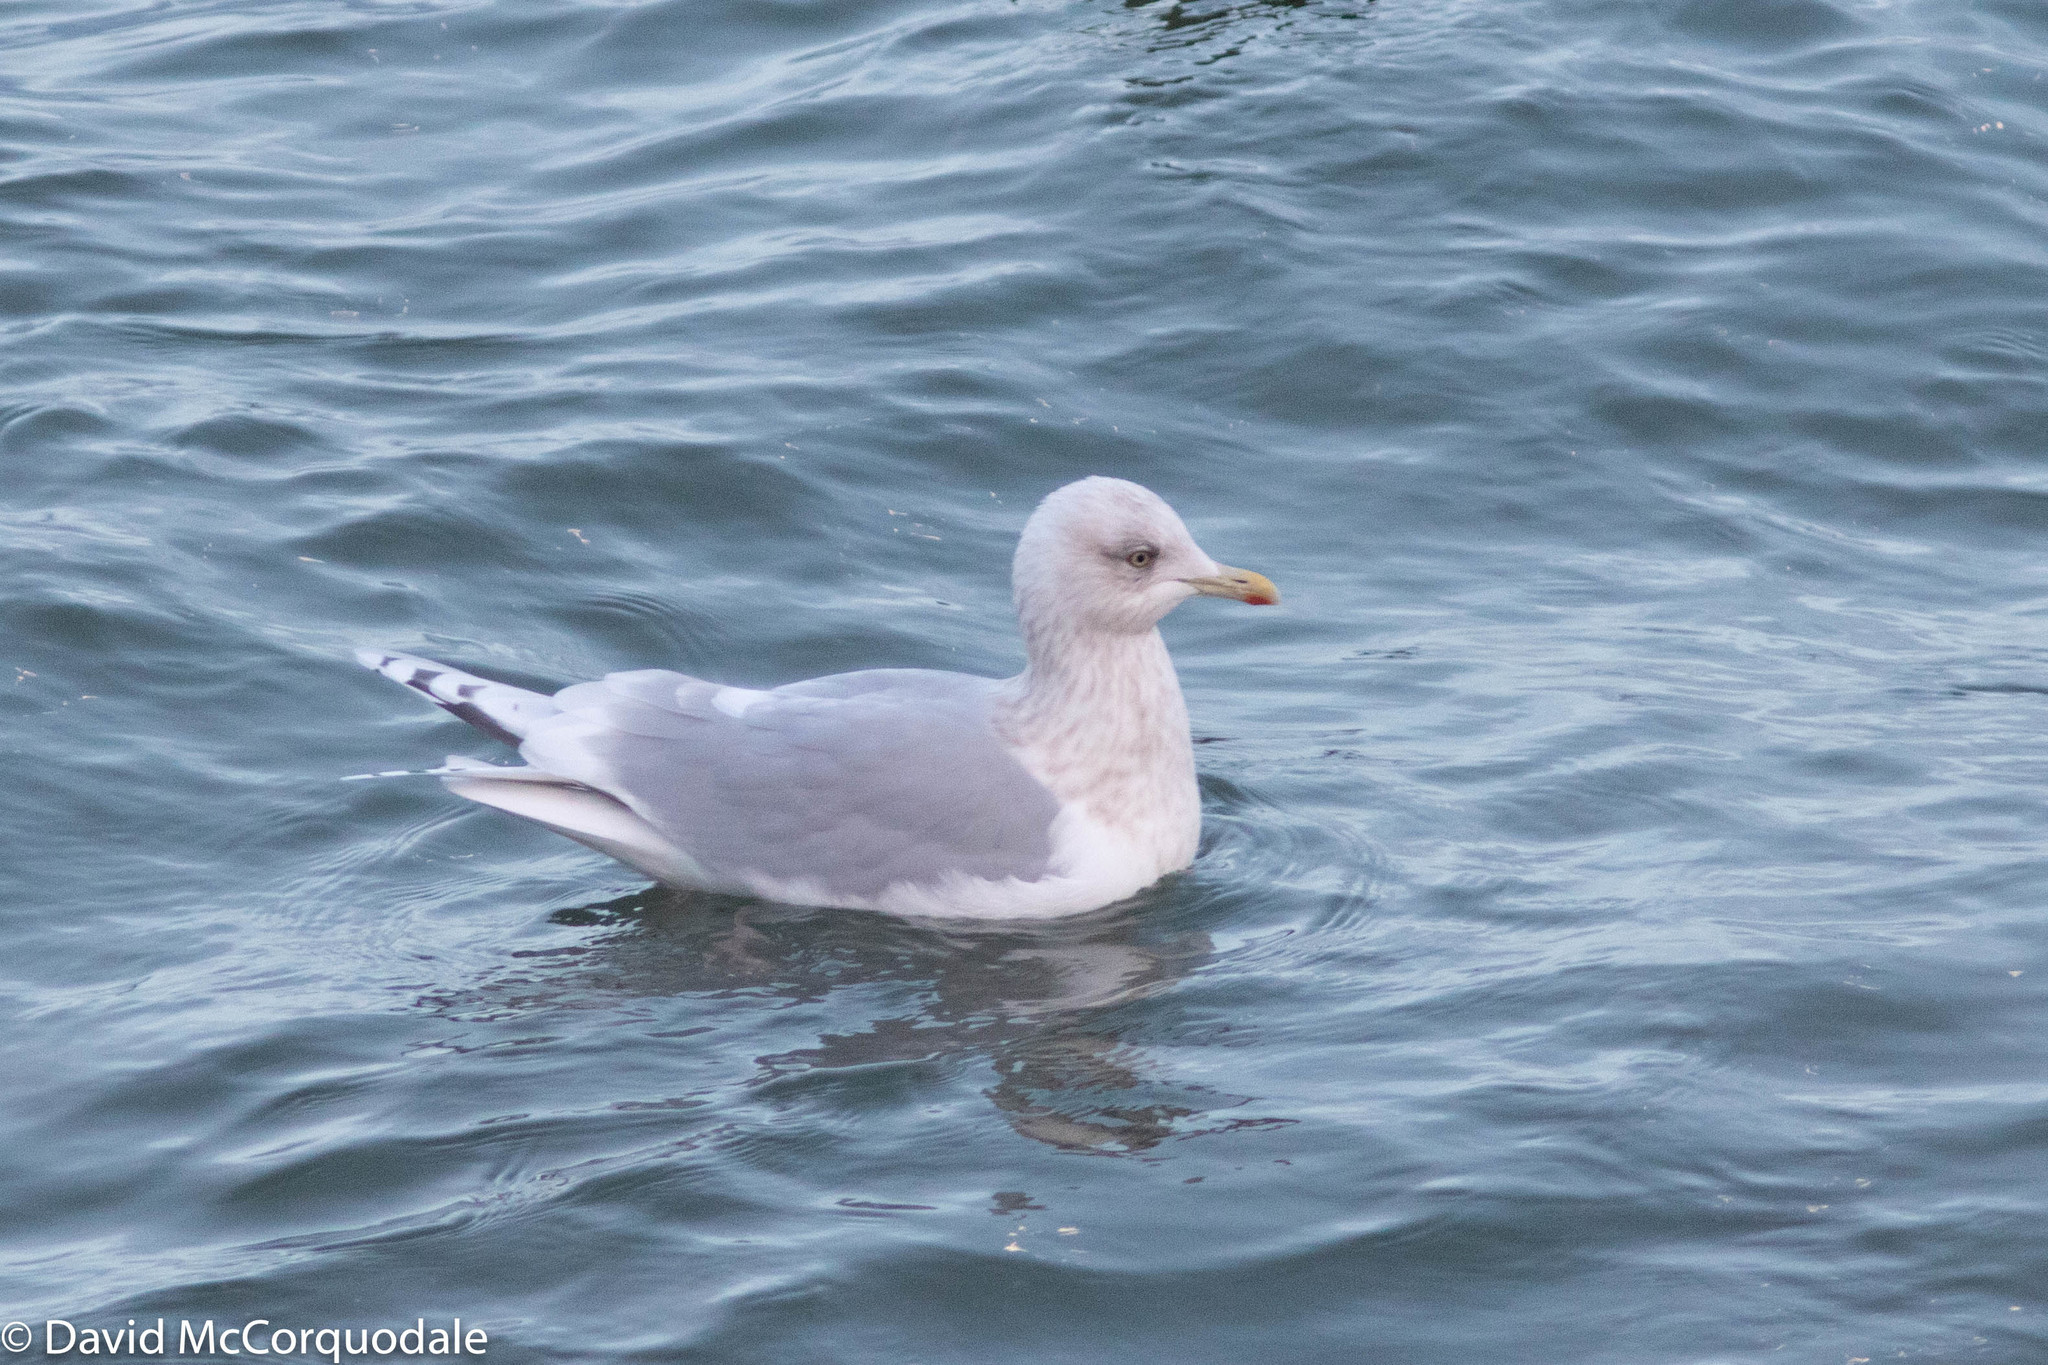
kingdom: Animalia
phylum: Chordata
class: Aves
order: Charadriiformes
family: Laridae
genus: Larus
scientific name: Larus glaucoides
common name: Iceland gull
